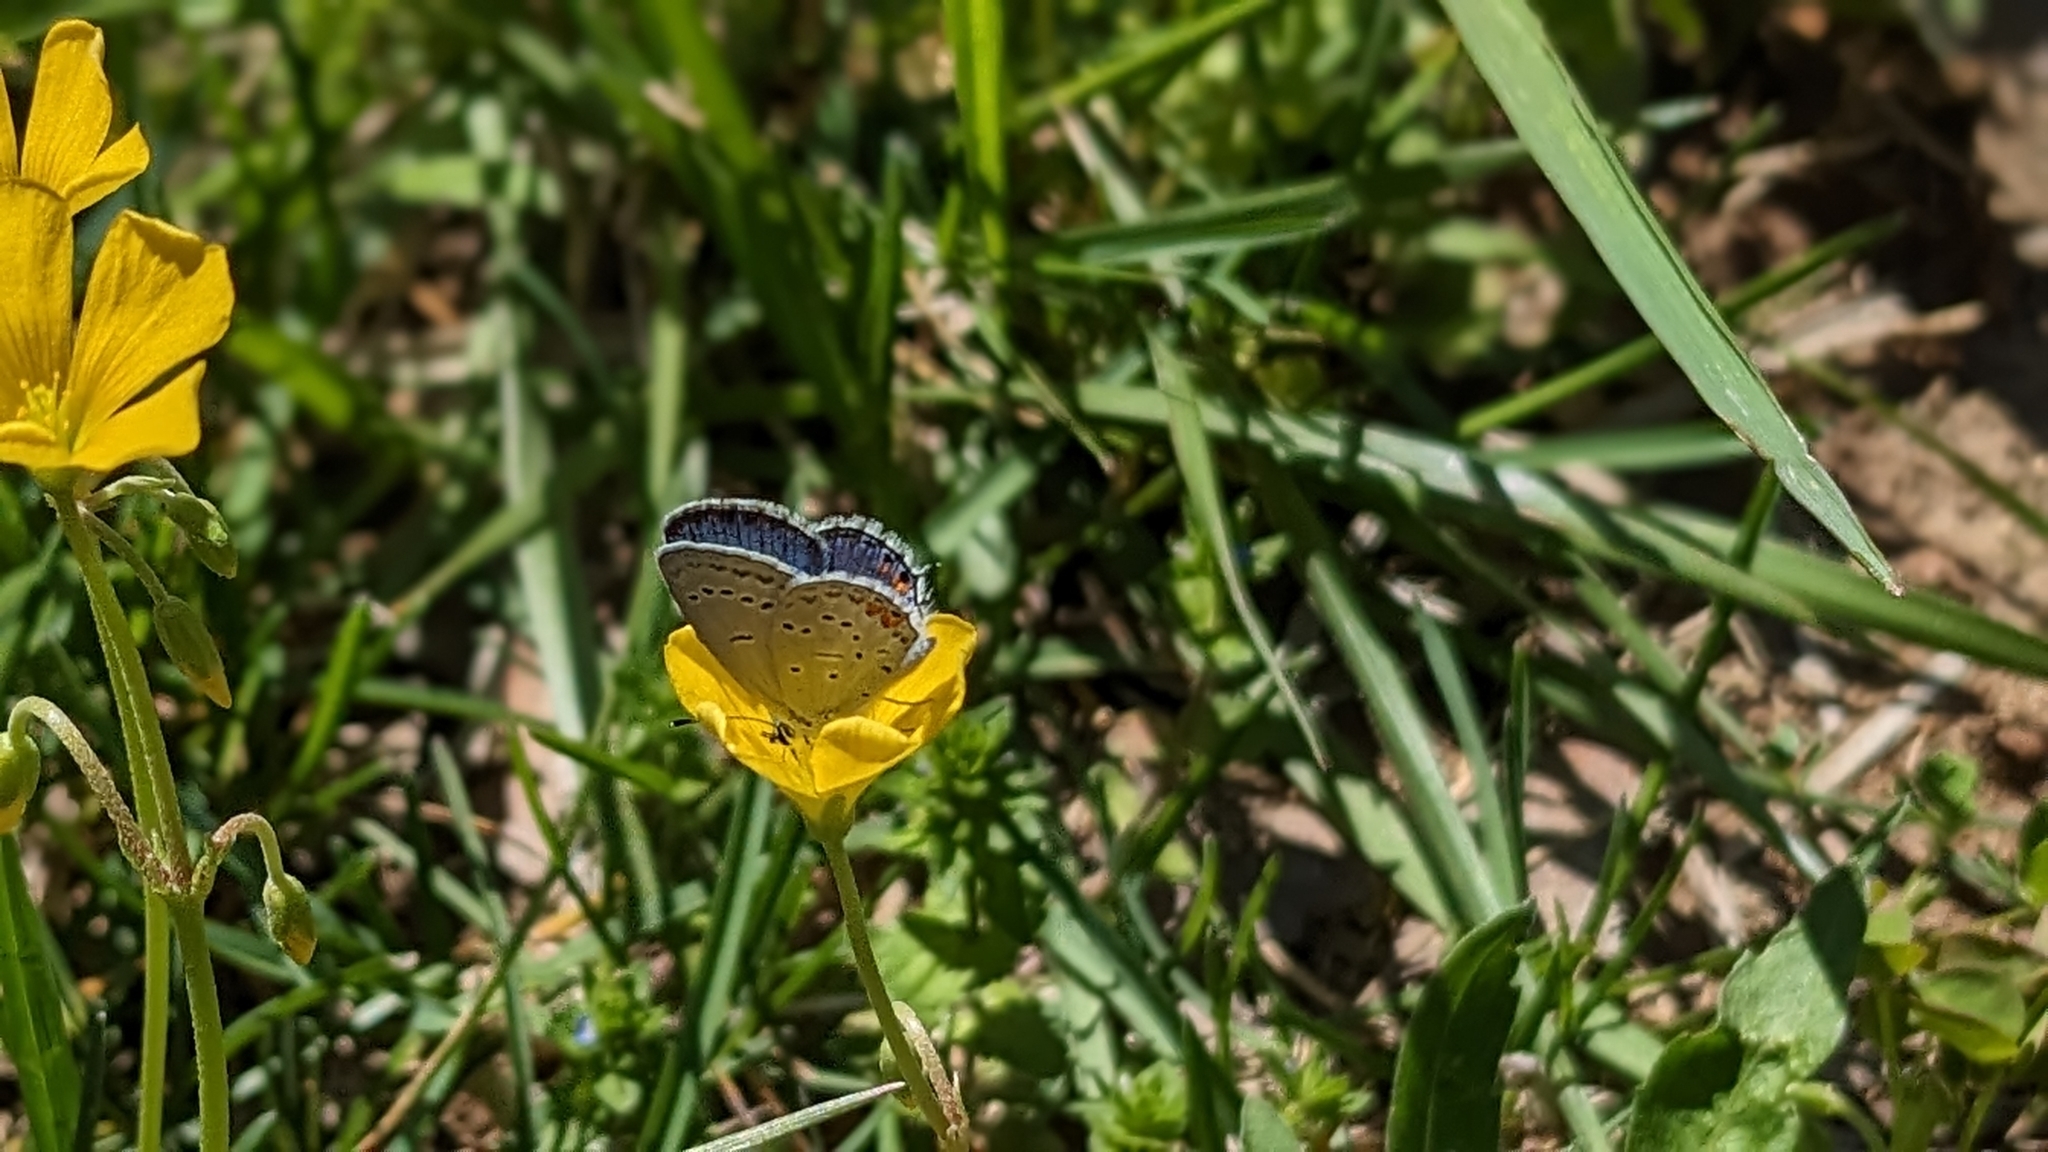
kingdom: Animalia
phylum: Arthropoda
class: Insecta
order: Lepidoptera
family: Lycaenidae
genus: Elkalyce
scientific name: Elkalyce comyntas
